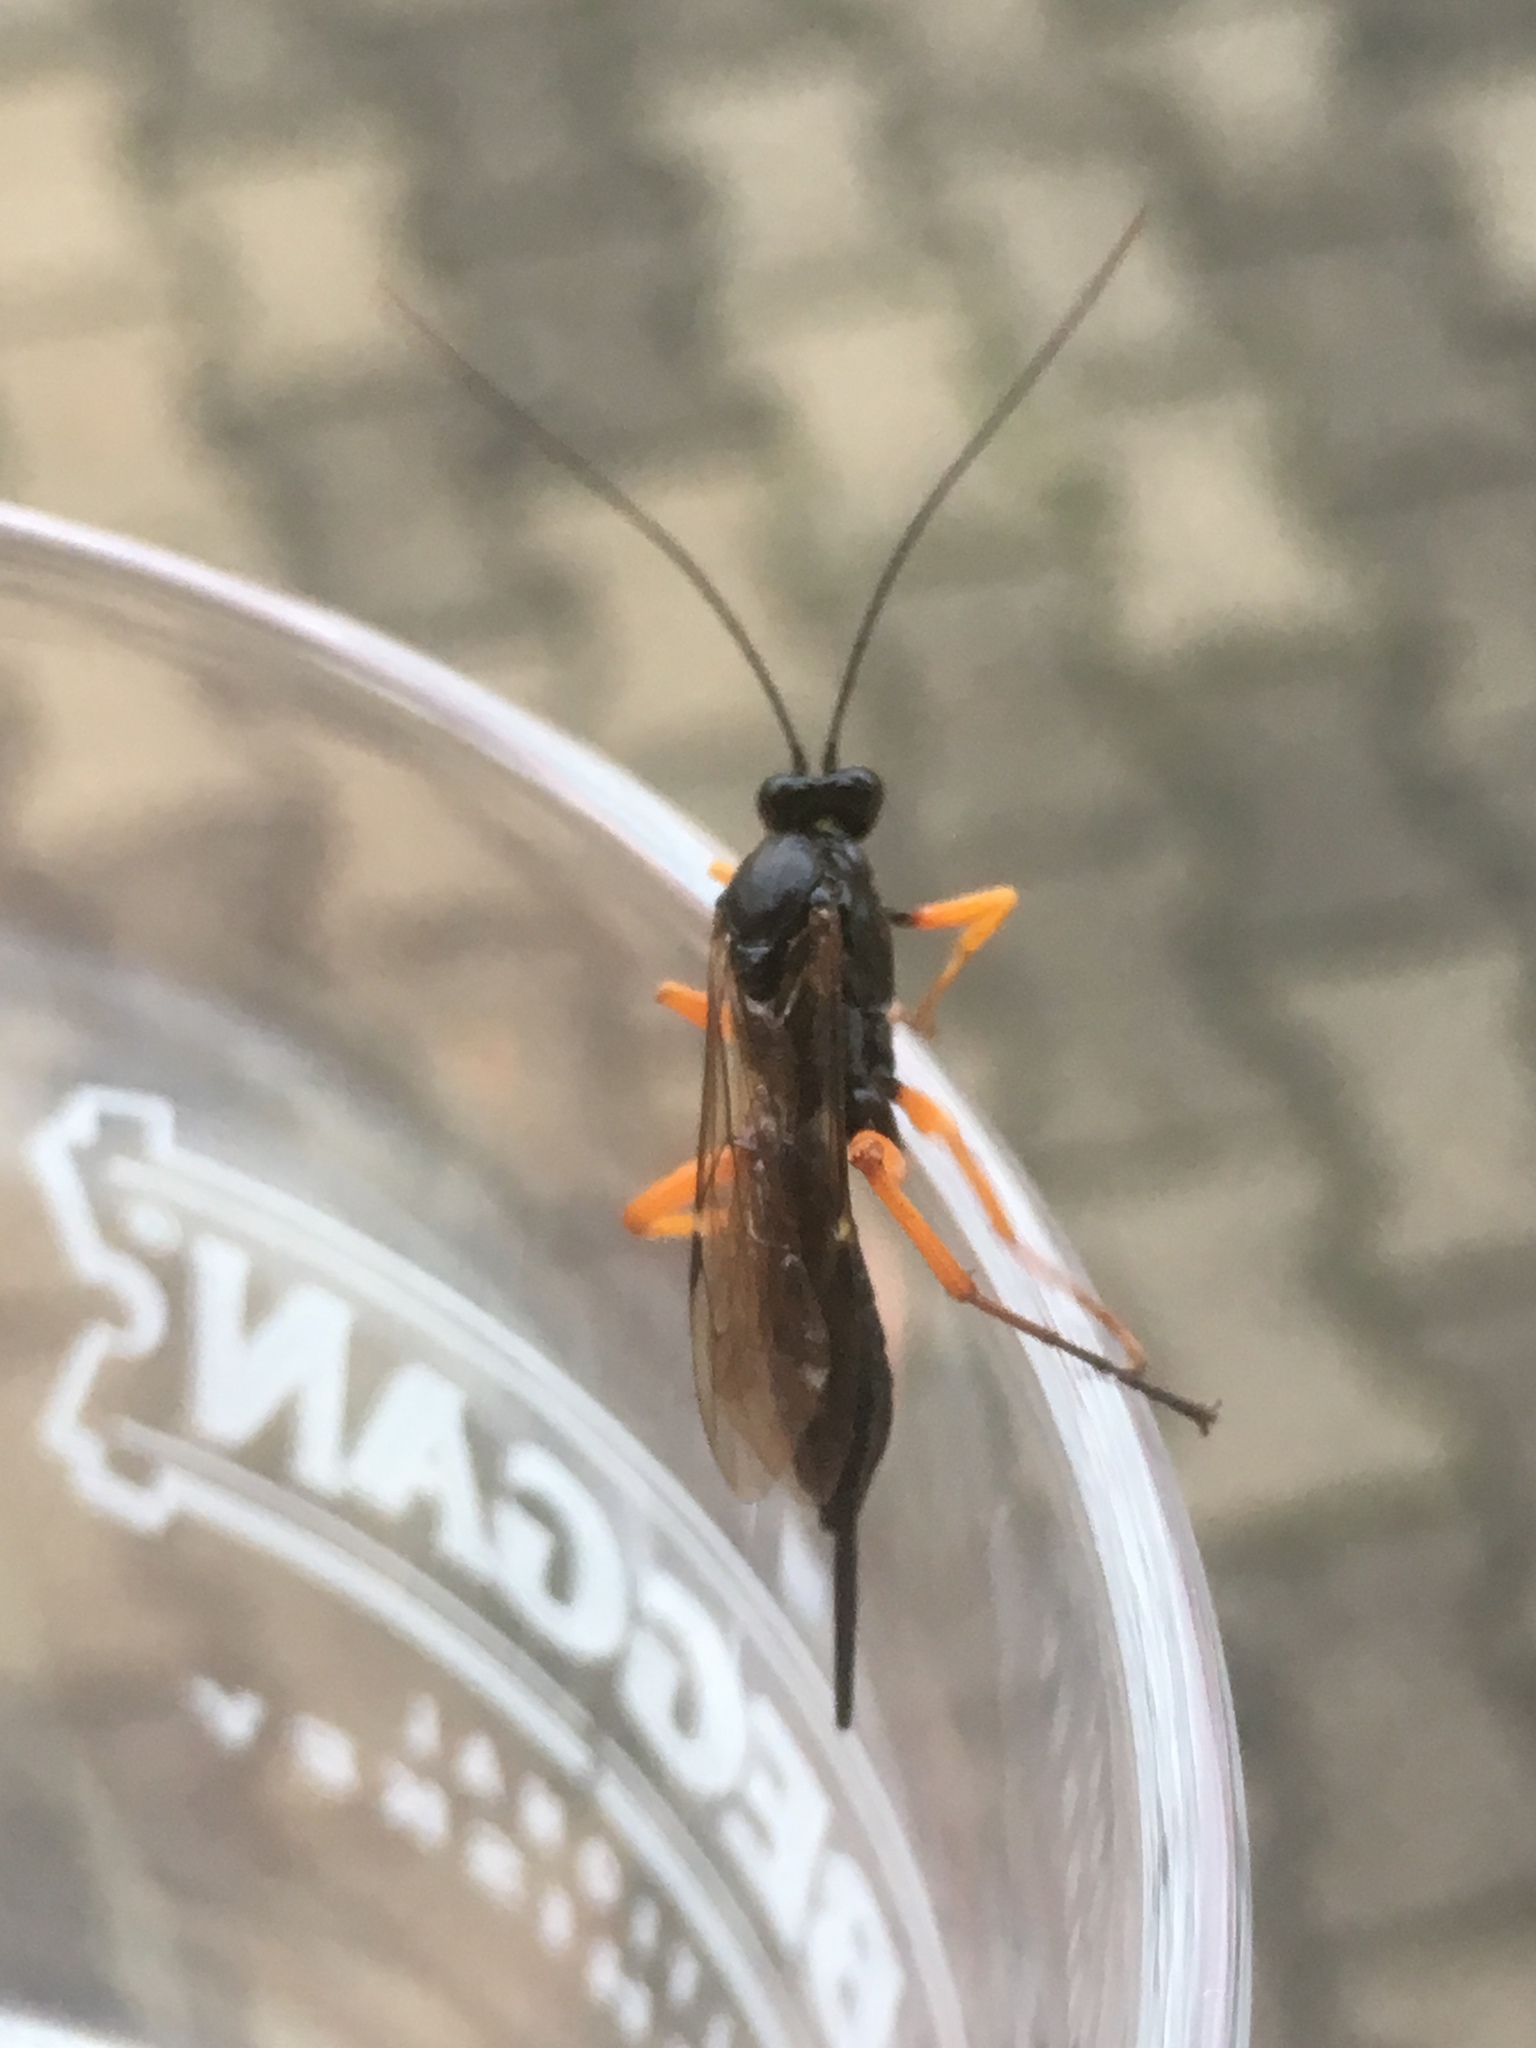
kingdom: Animalia
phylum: Arthropoda
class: Insecta
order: Hymenoptera
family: Ichneumonidae
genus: Pimpla
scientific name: Pimpla rufipes
